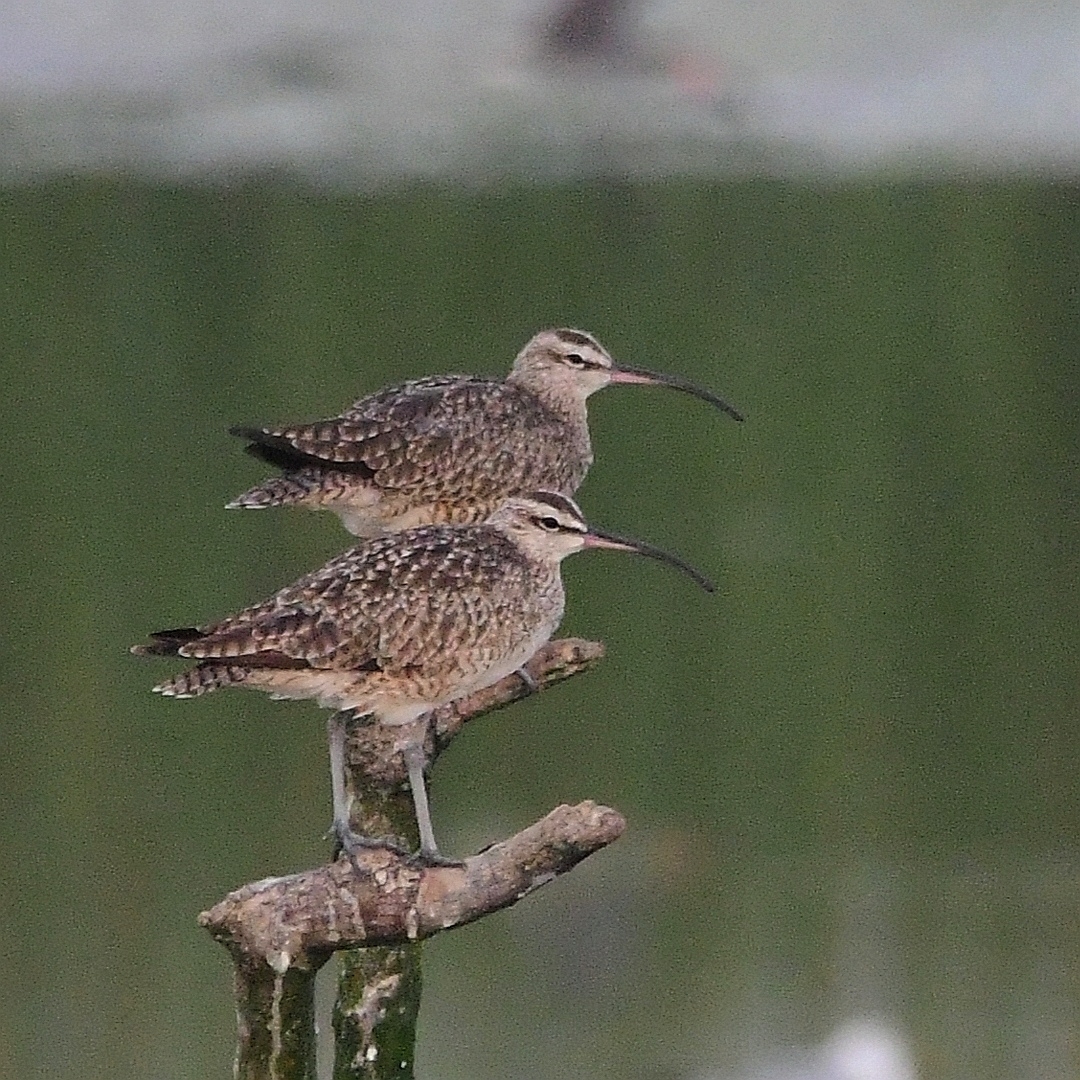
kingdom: Animalia
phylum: Chordata
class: Aves
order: Charadriiformes
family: Scolopacidae
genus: Numenius
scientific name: Numenius phaeopus
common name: Whimbrel
